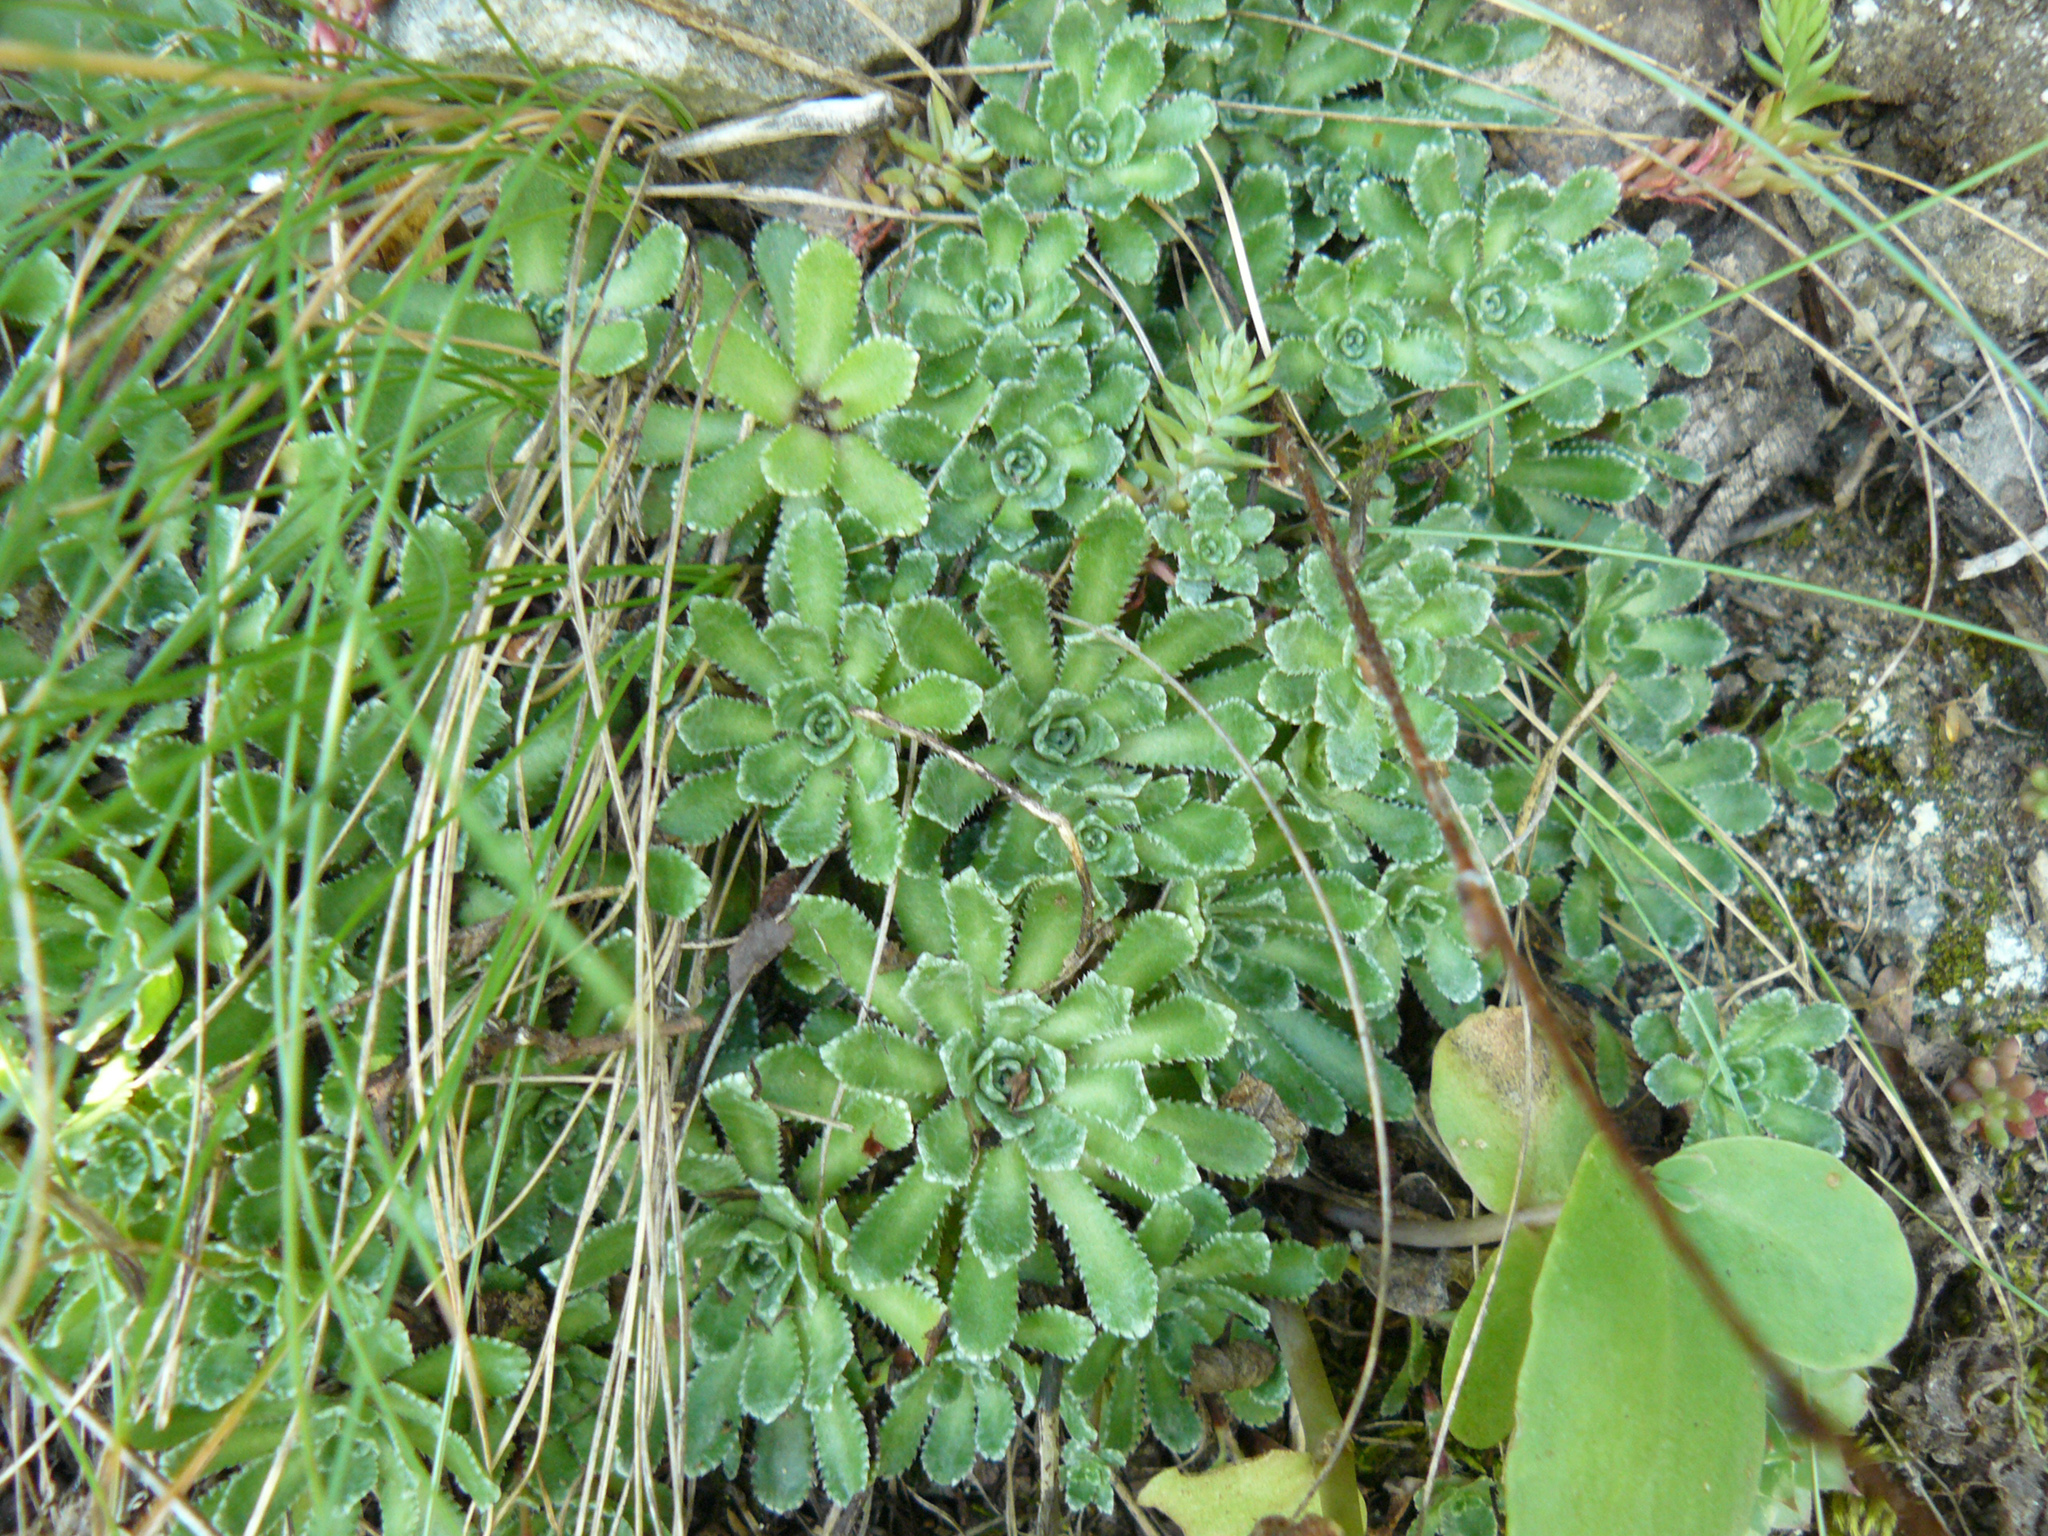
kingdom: Plantae
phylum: Tracheophyta
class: Magnoliopsida
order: Saxifragales
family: Saxifragaceae
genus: Saxifraga
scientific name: Saxifraga paniculata
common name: Livelong saxifrage
